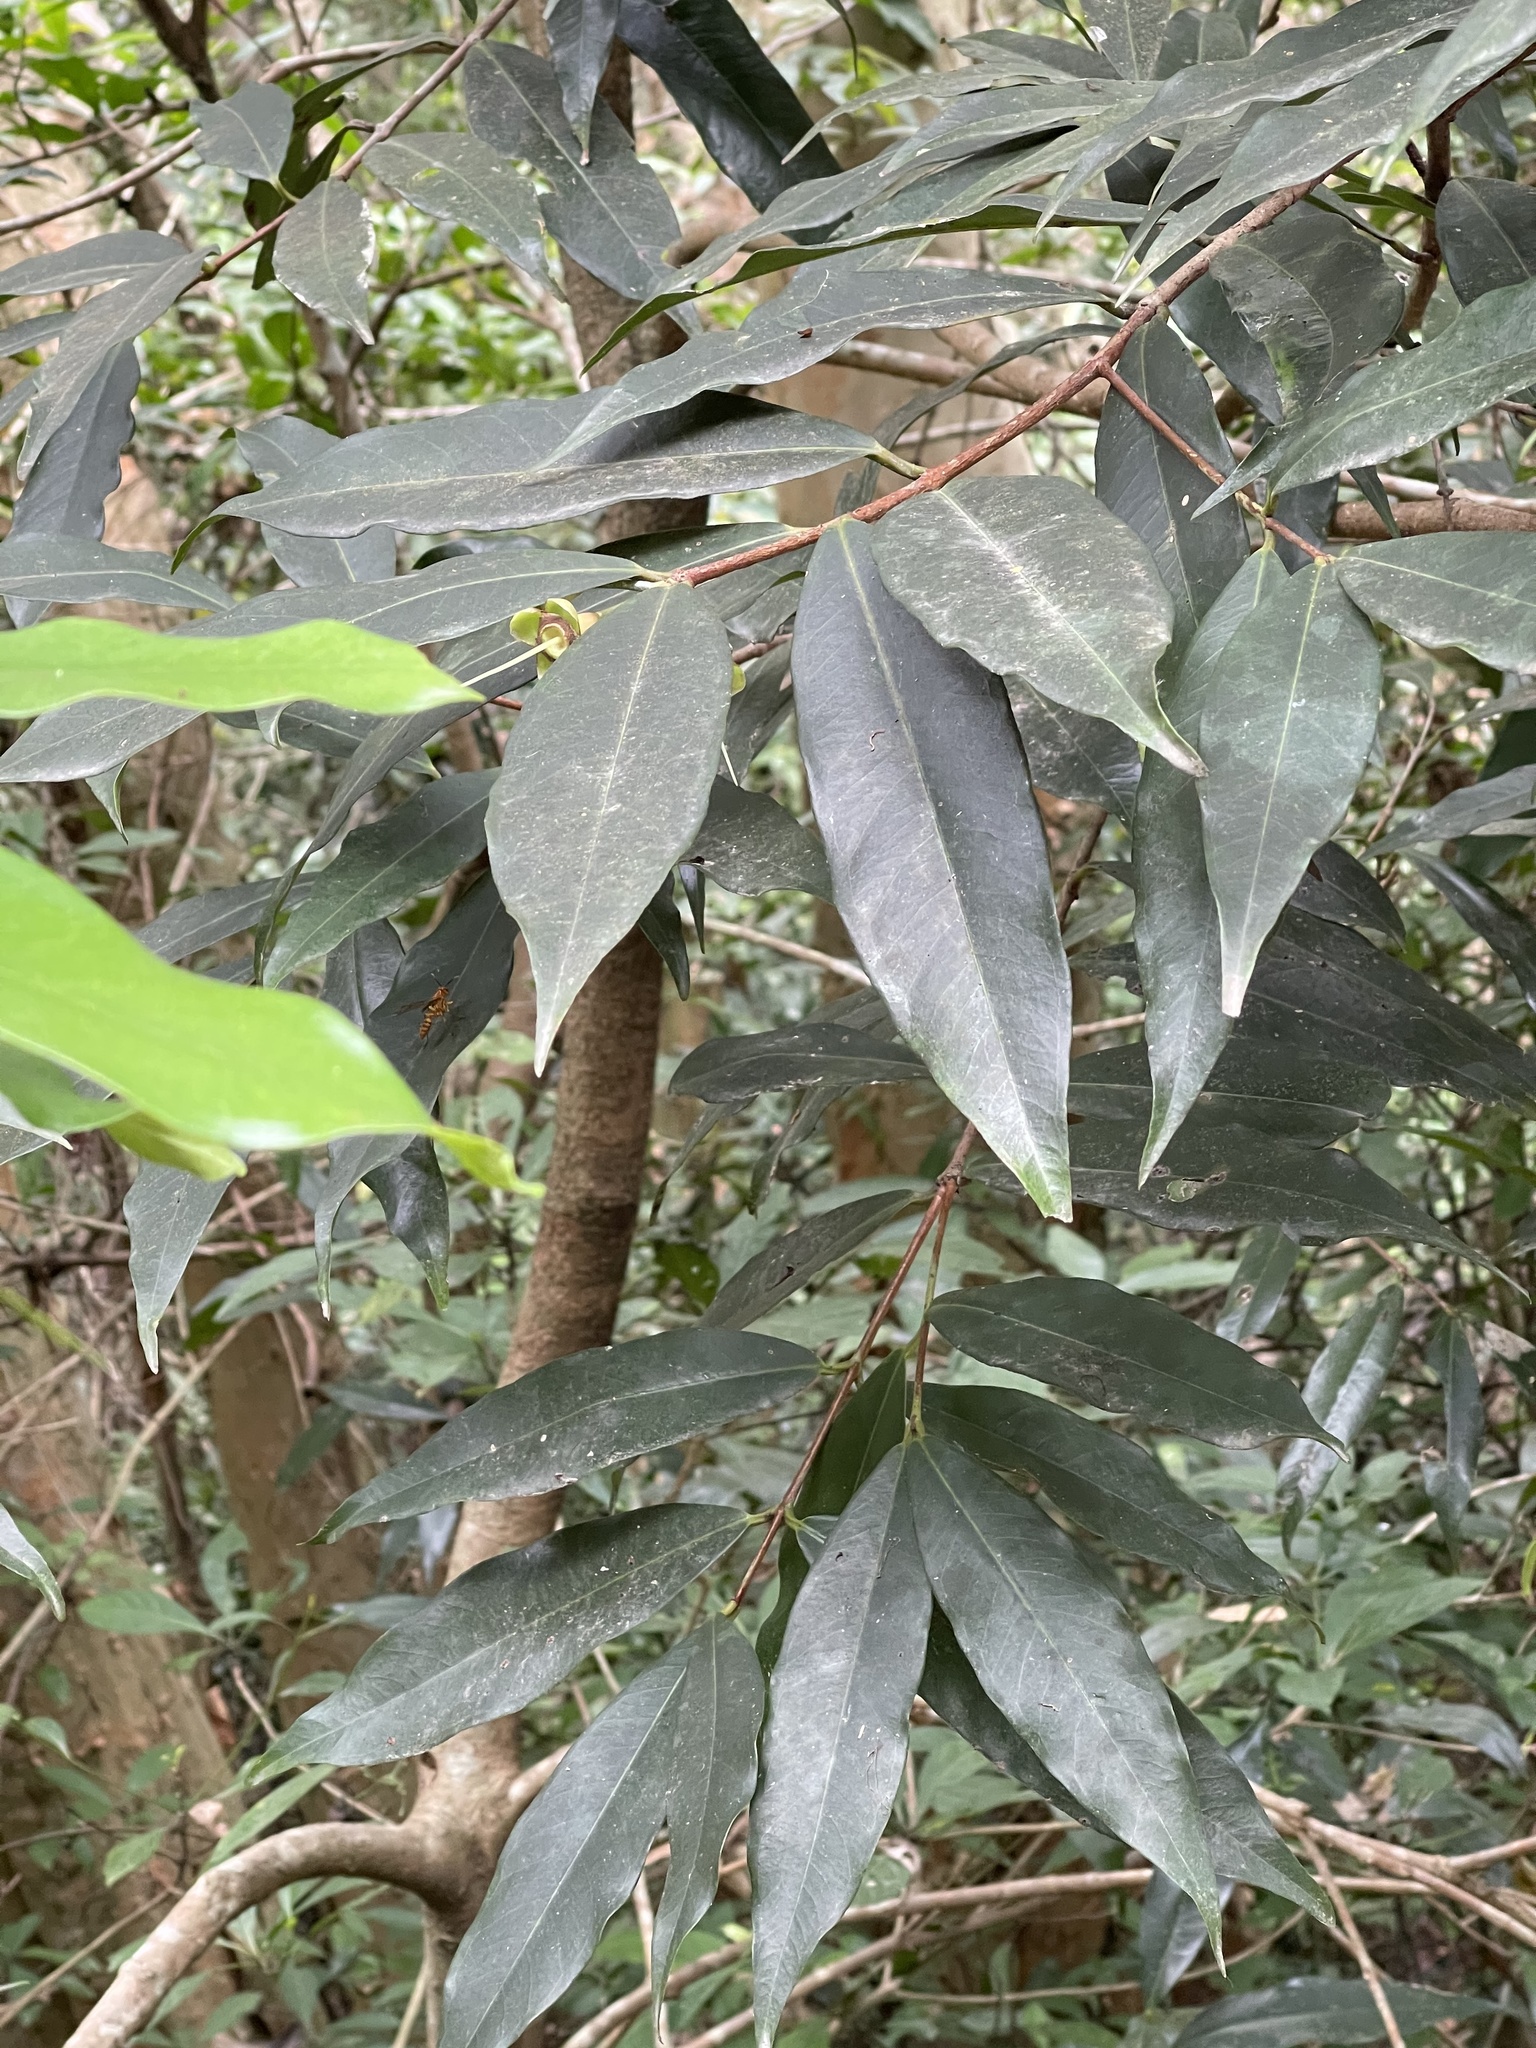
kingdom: Plantae
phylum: Tracheophyta
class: Magnoliopsida
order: Myrtales
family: Myrtaceae
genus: Syzygium
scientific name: Syzygium jambos
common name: Malabar plum
